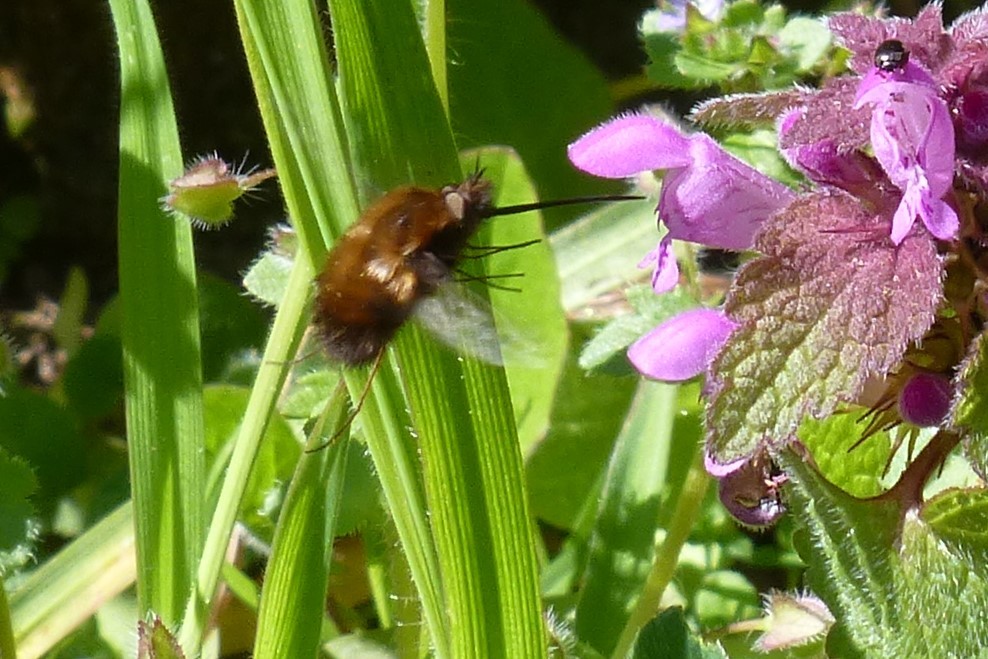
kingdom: Animalia
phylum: Arthropoda
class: Insecta
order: Diptera
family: Bombyliidae
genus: Bombylius
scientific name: Bombylius discolor
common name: Dotted bee-fly
